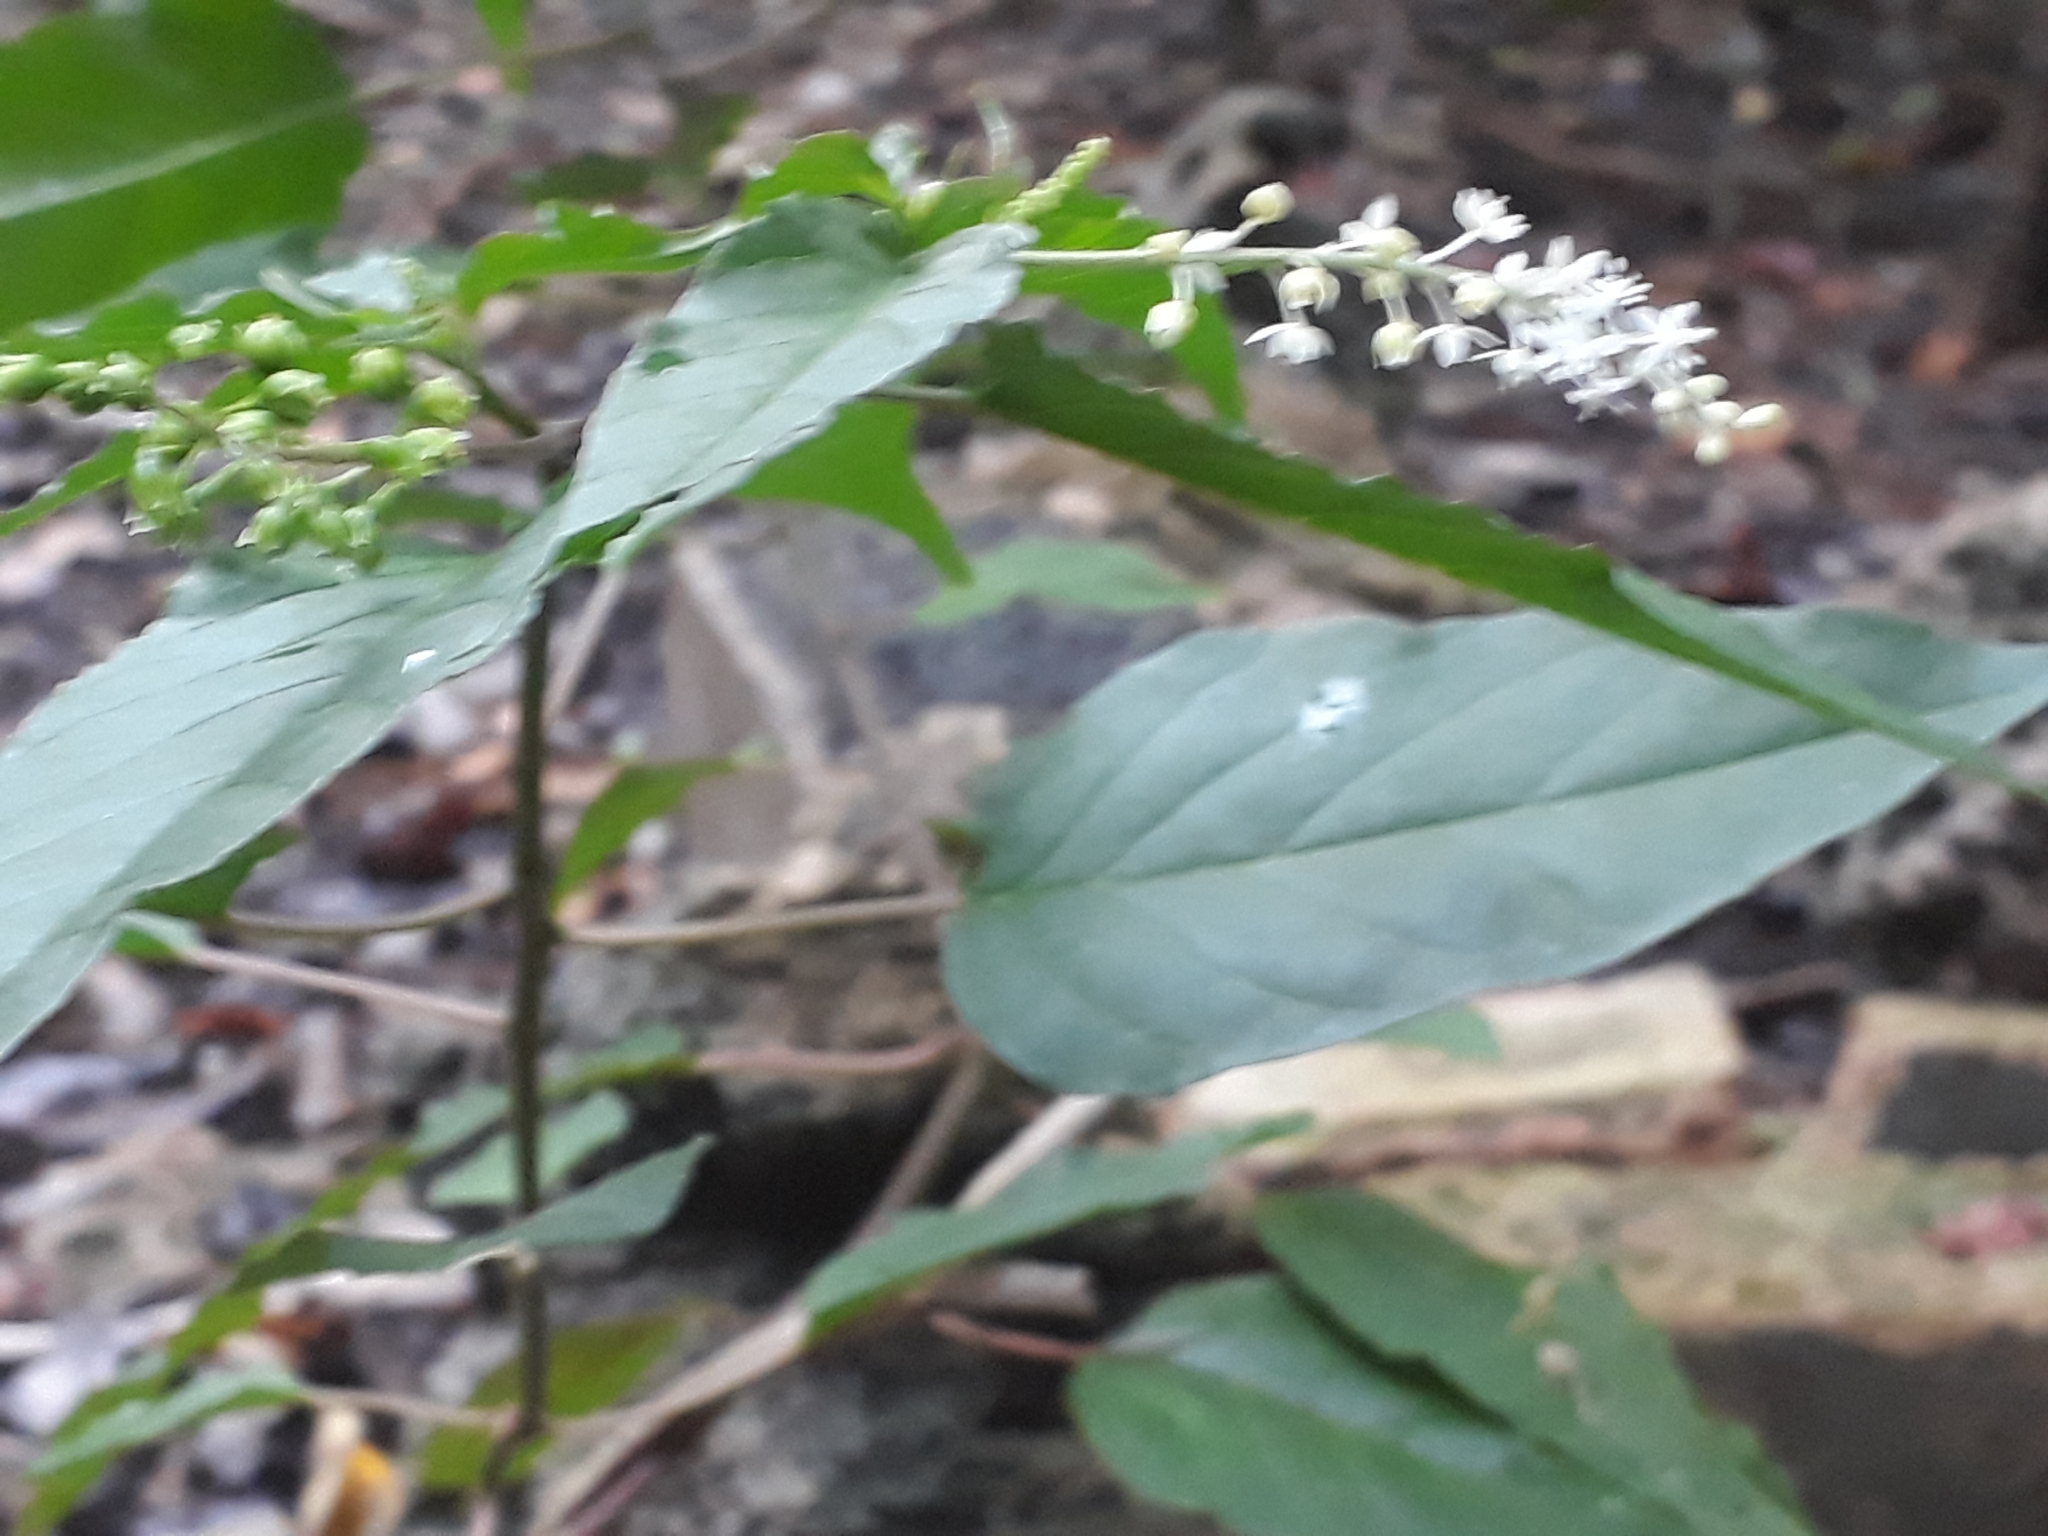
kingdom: Plantae
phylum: Tracheophyta
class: Magnoliopsida
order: Caryophyllales
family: Phytolaccaceae
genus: Rivina
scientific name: Rivina humilis
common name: Rougeplant
